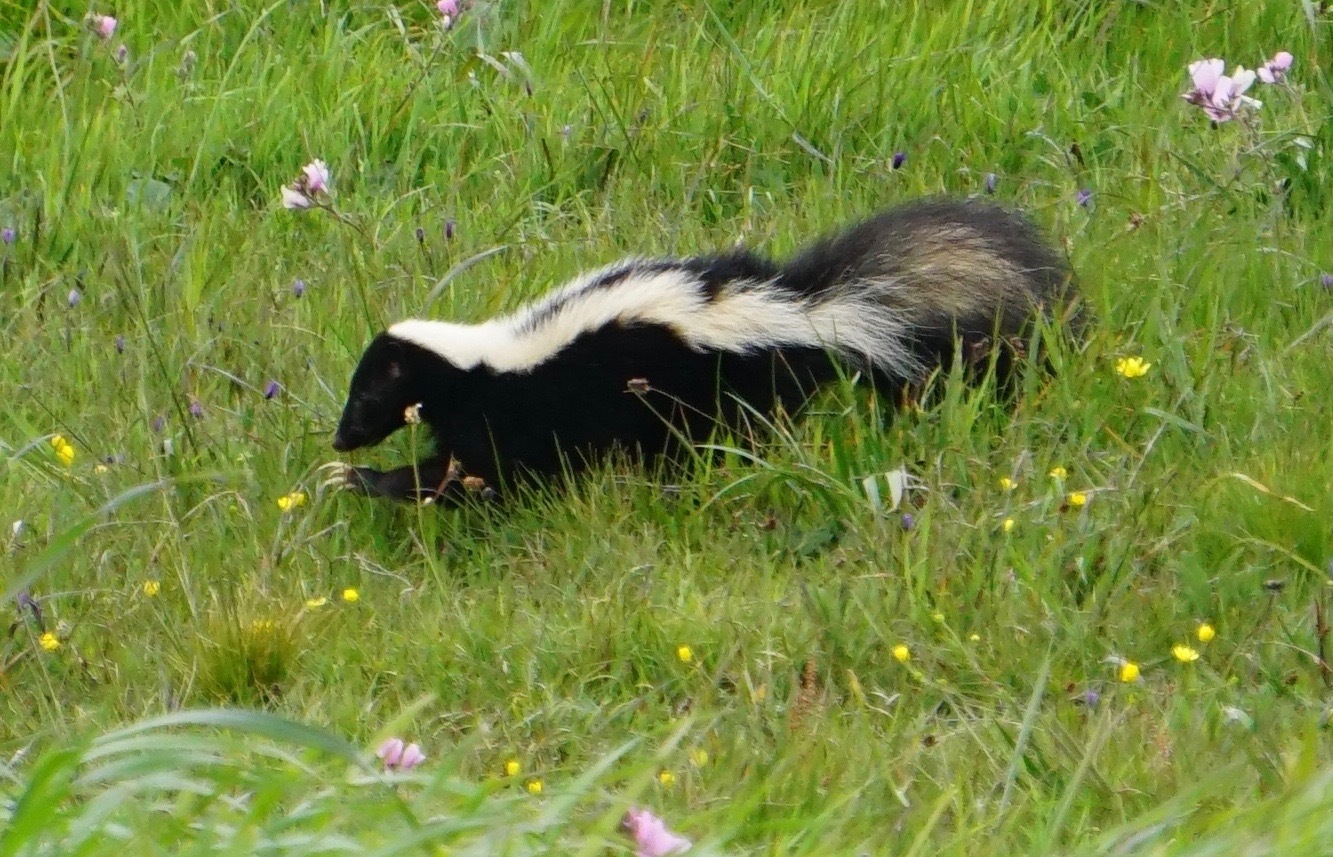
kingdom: Animalia
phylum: Chordata
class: Mammalia
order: Carnivora
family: Mephitidae
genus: Mephitis
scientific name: Mephitis mephitis
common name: Striped skunk
